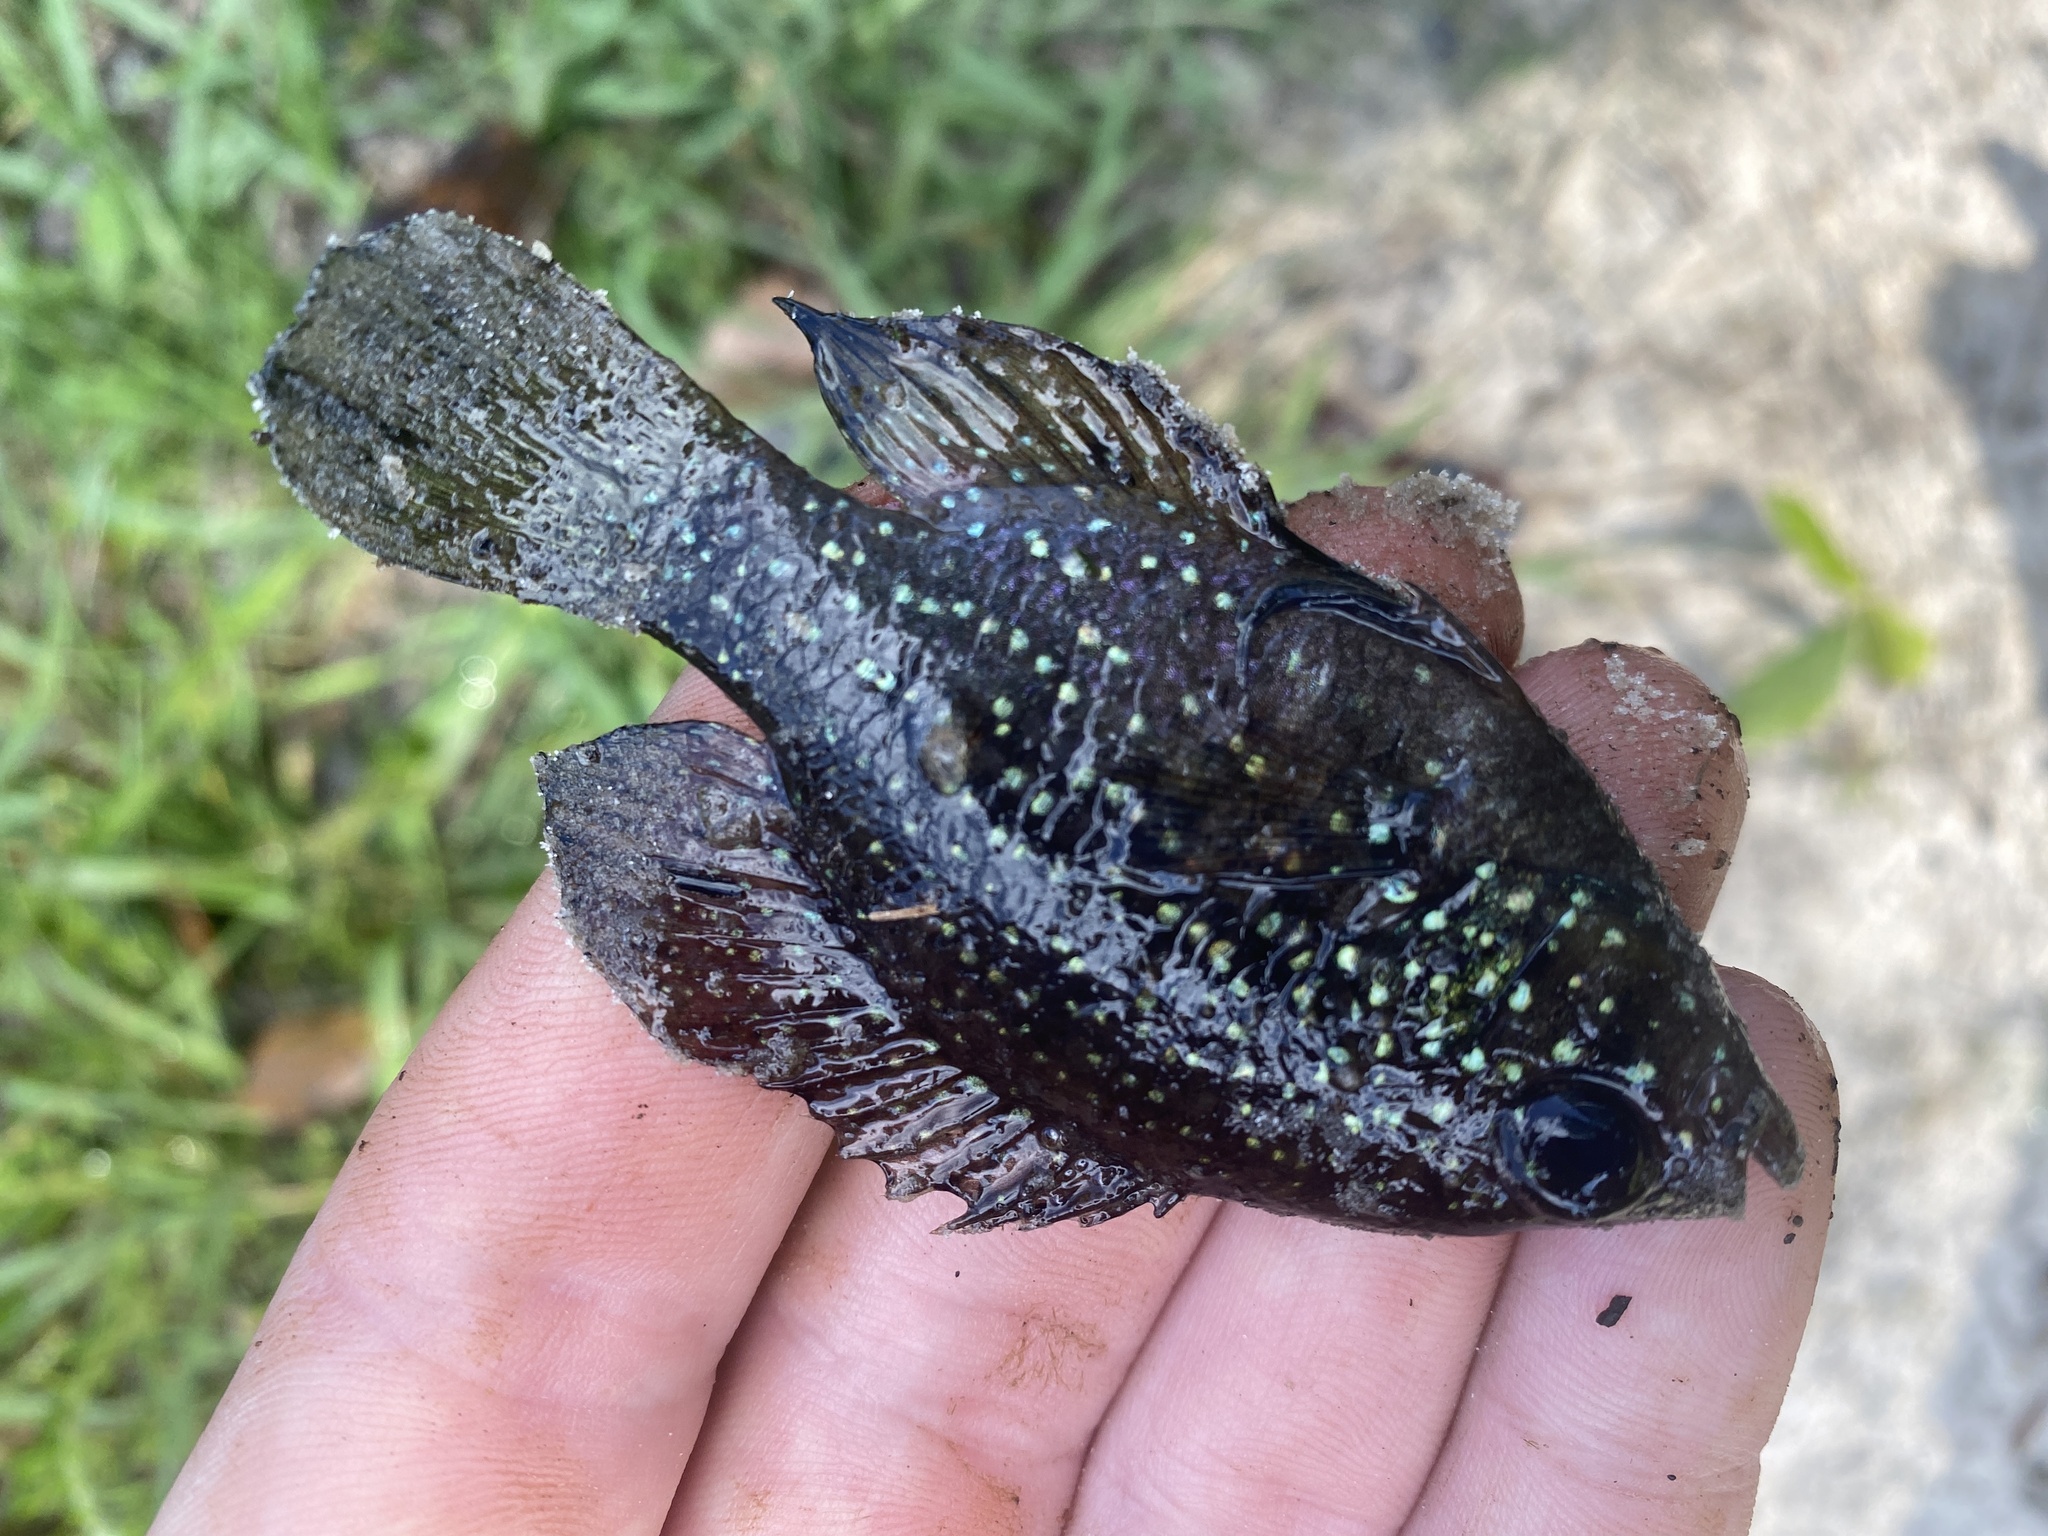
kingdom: Animalia
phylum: Chordata
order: Perciformes
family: Centrarchidae
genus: Enneacanthus
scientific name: Enneacanthus gloriosus
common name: Bluespotted sunfish
